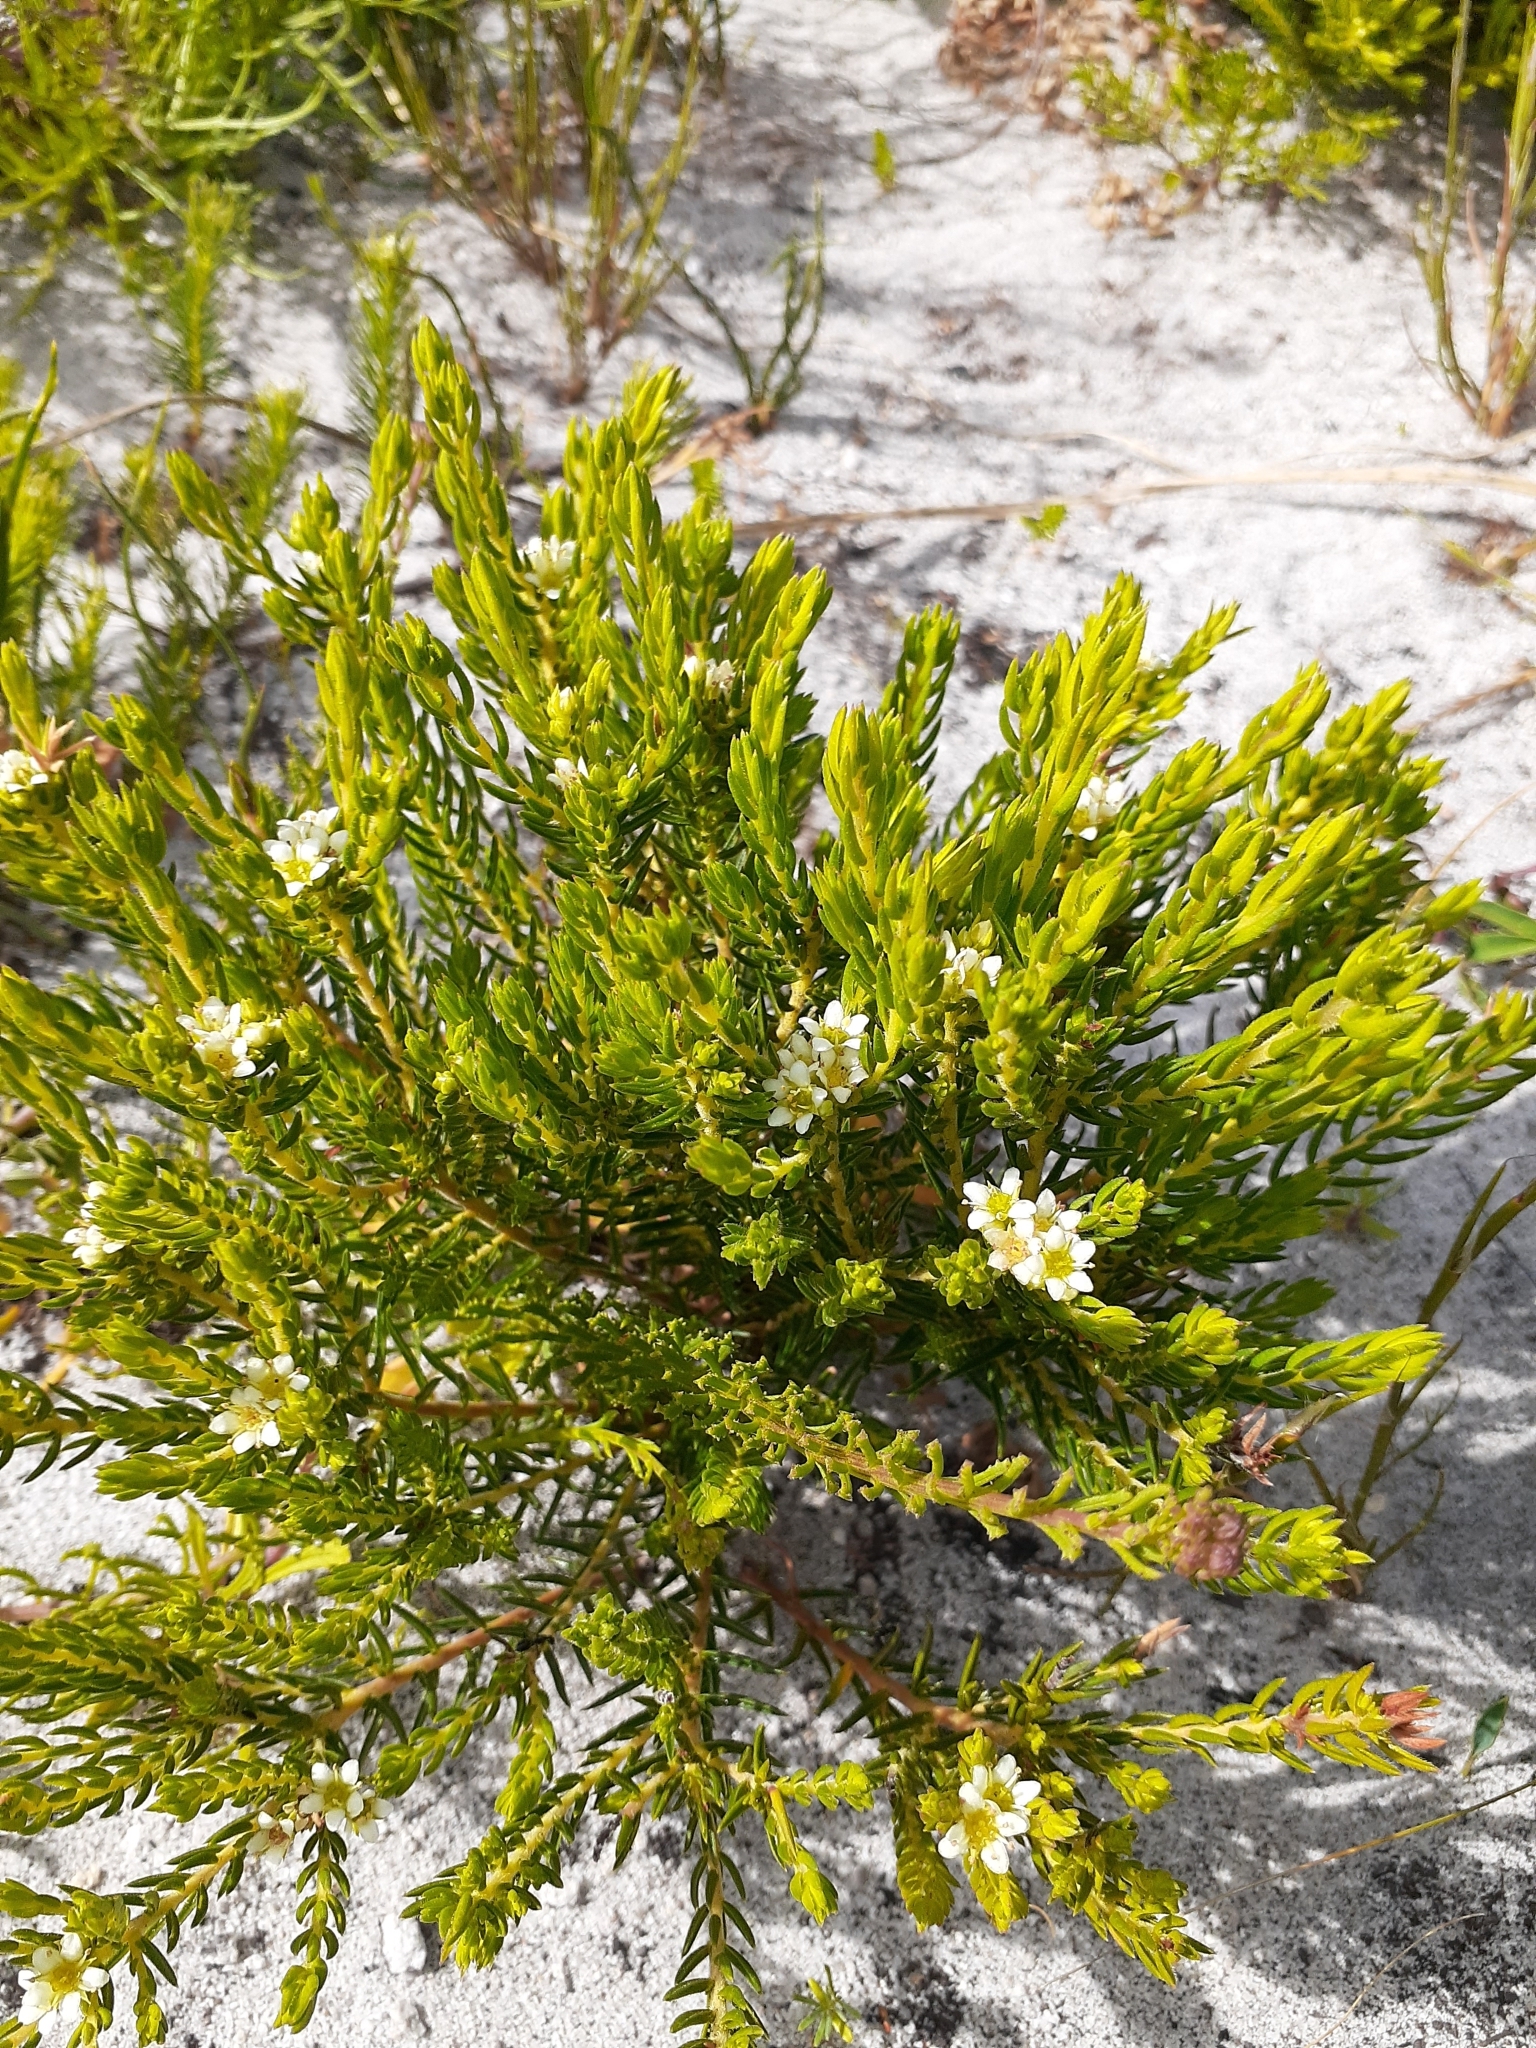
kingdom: Plantae
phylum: Tracheophyta
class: Magnoliopsida
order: Sapindales
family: Rutaceae
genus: Diosma
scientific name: Diosma oppositifolia
